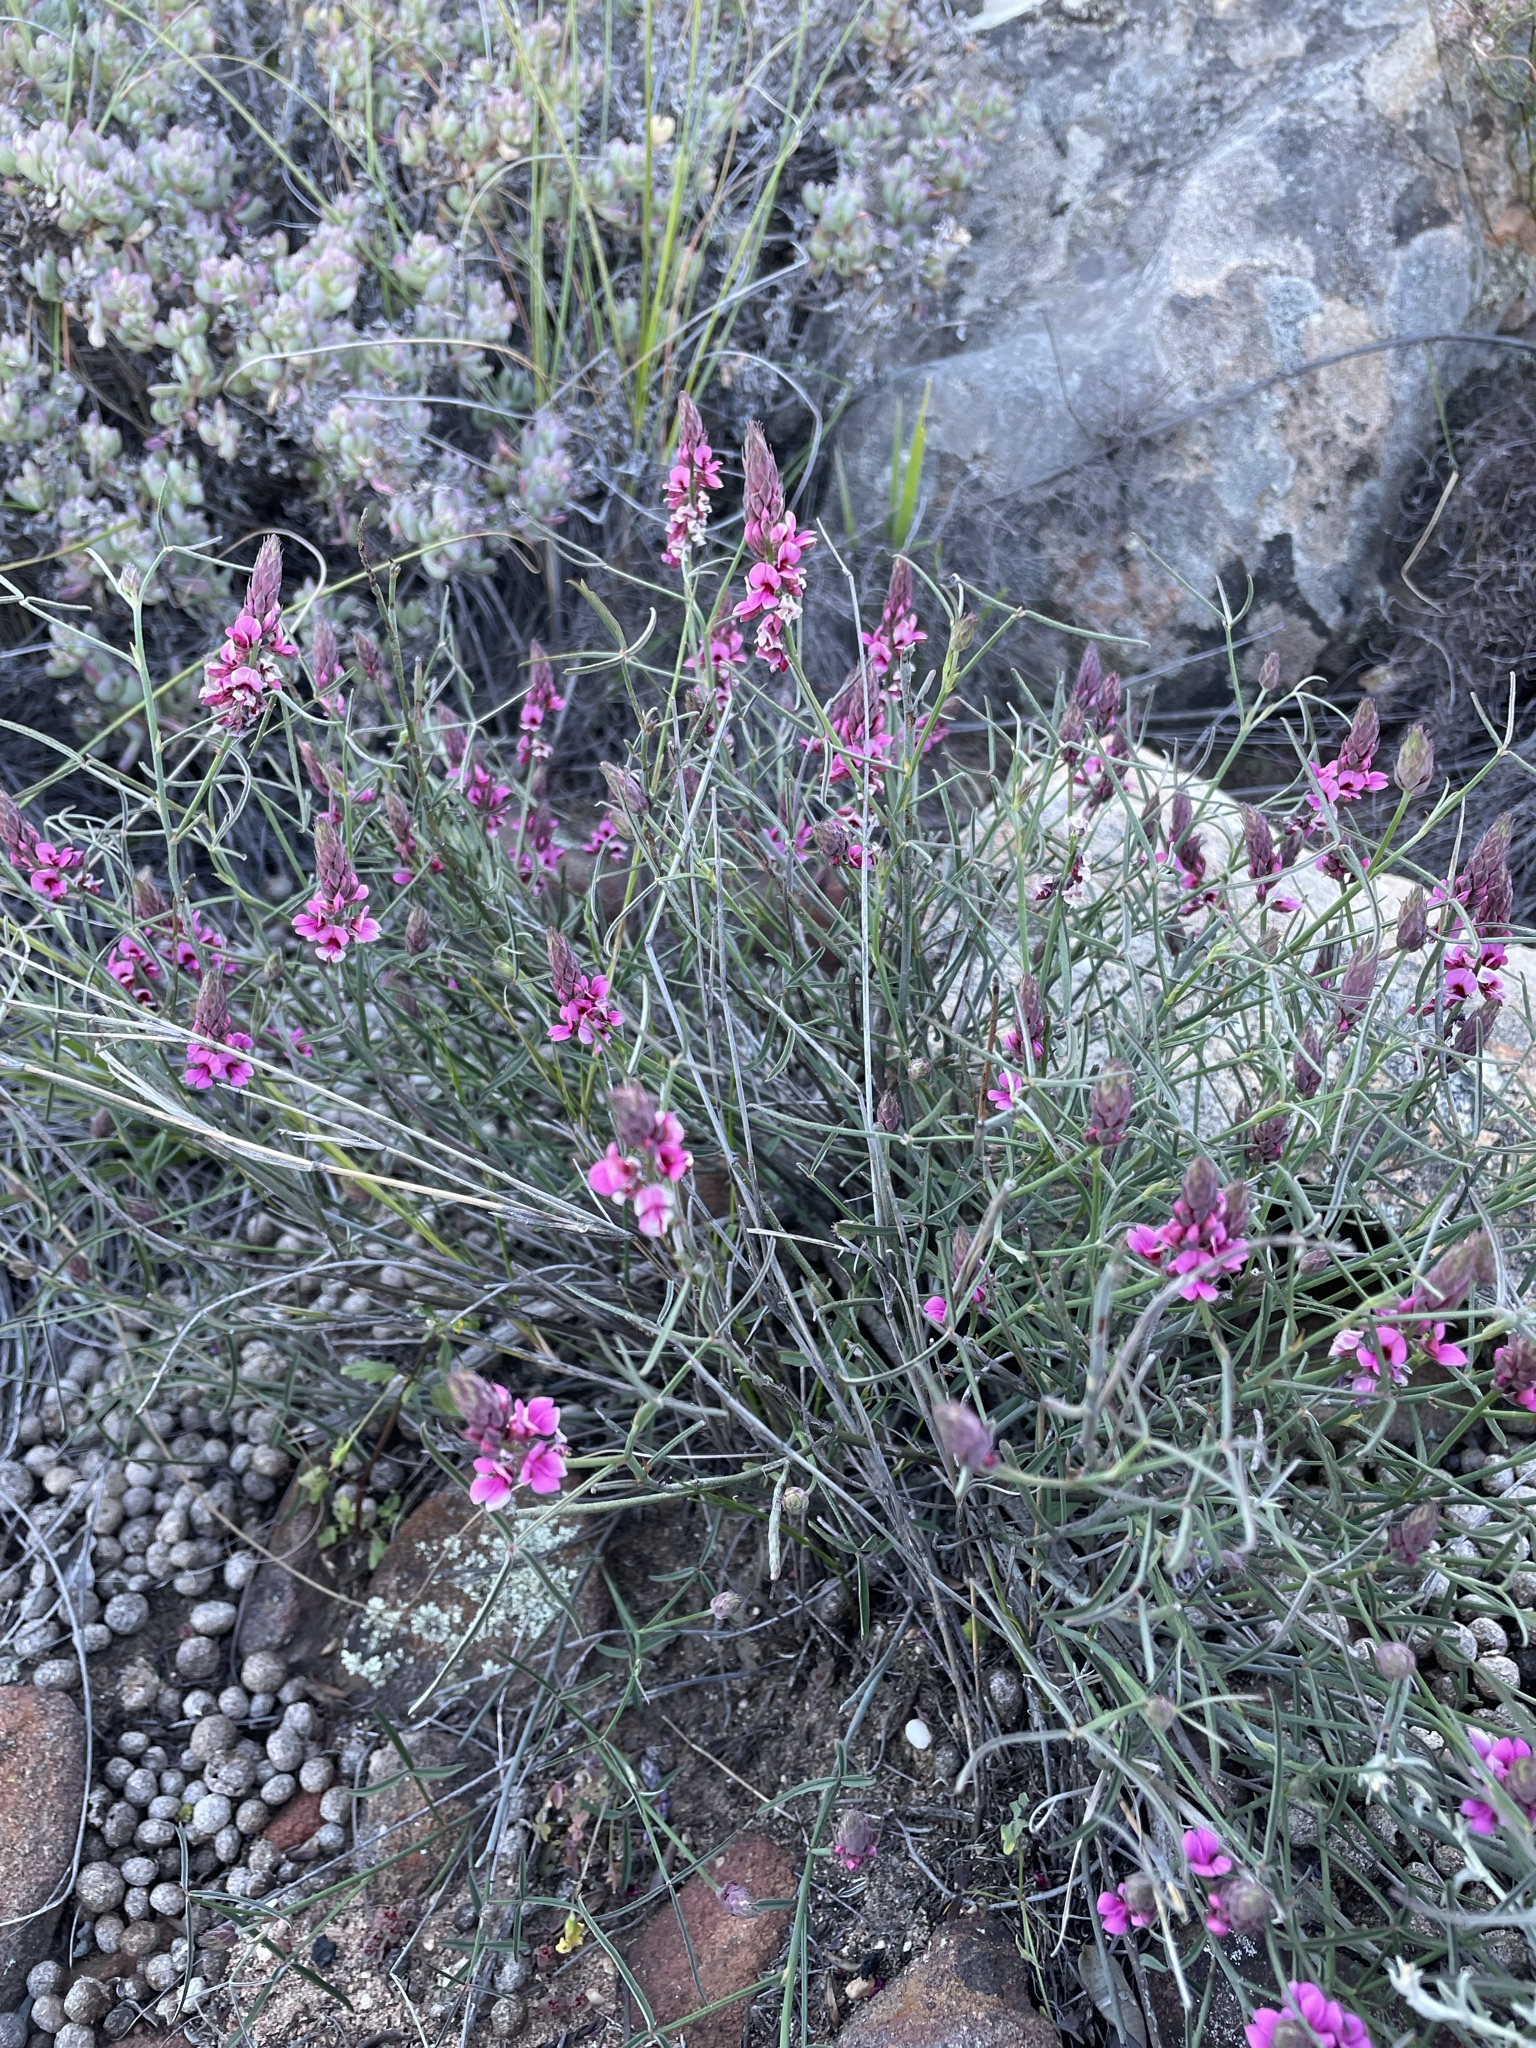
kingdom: Plantae
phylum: Tracheophyta
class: Magnoliopsida
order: Fabales
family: Fabaceae
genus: Indigofera
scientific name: Indigofera venusta
